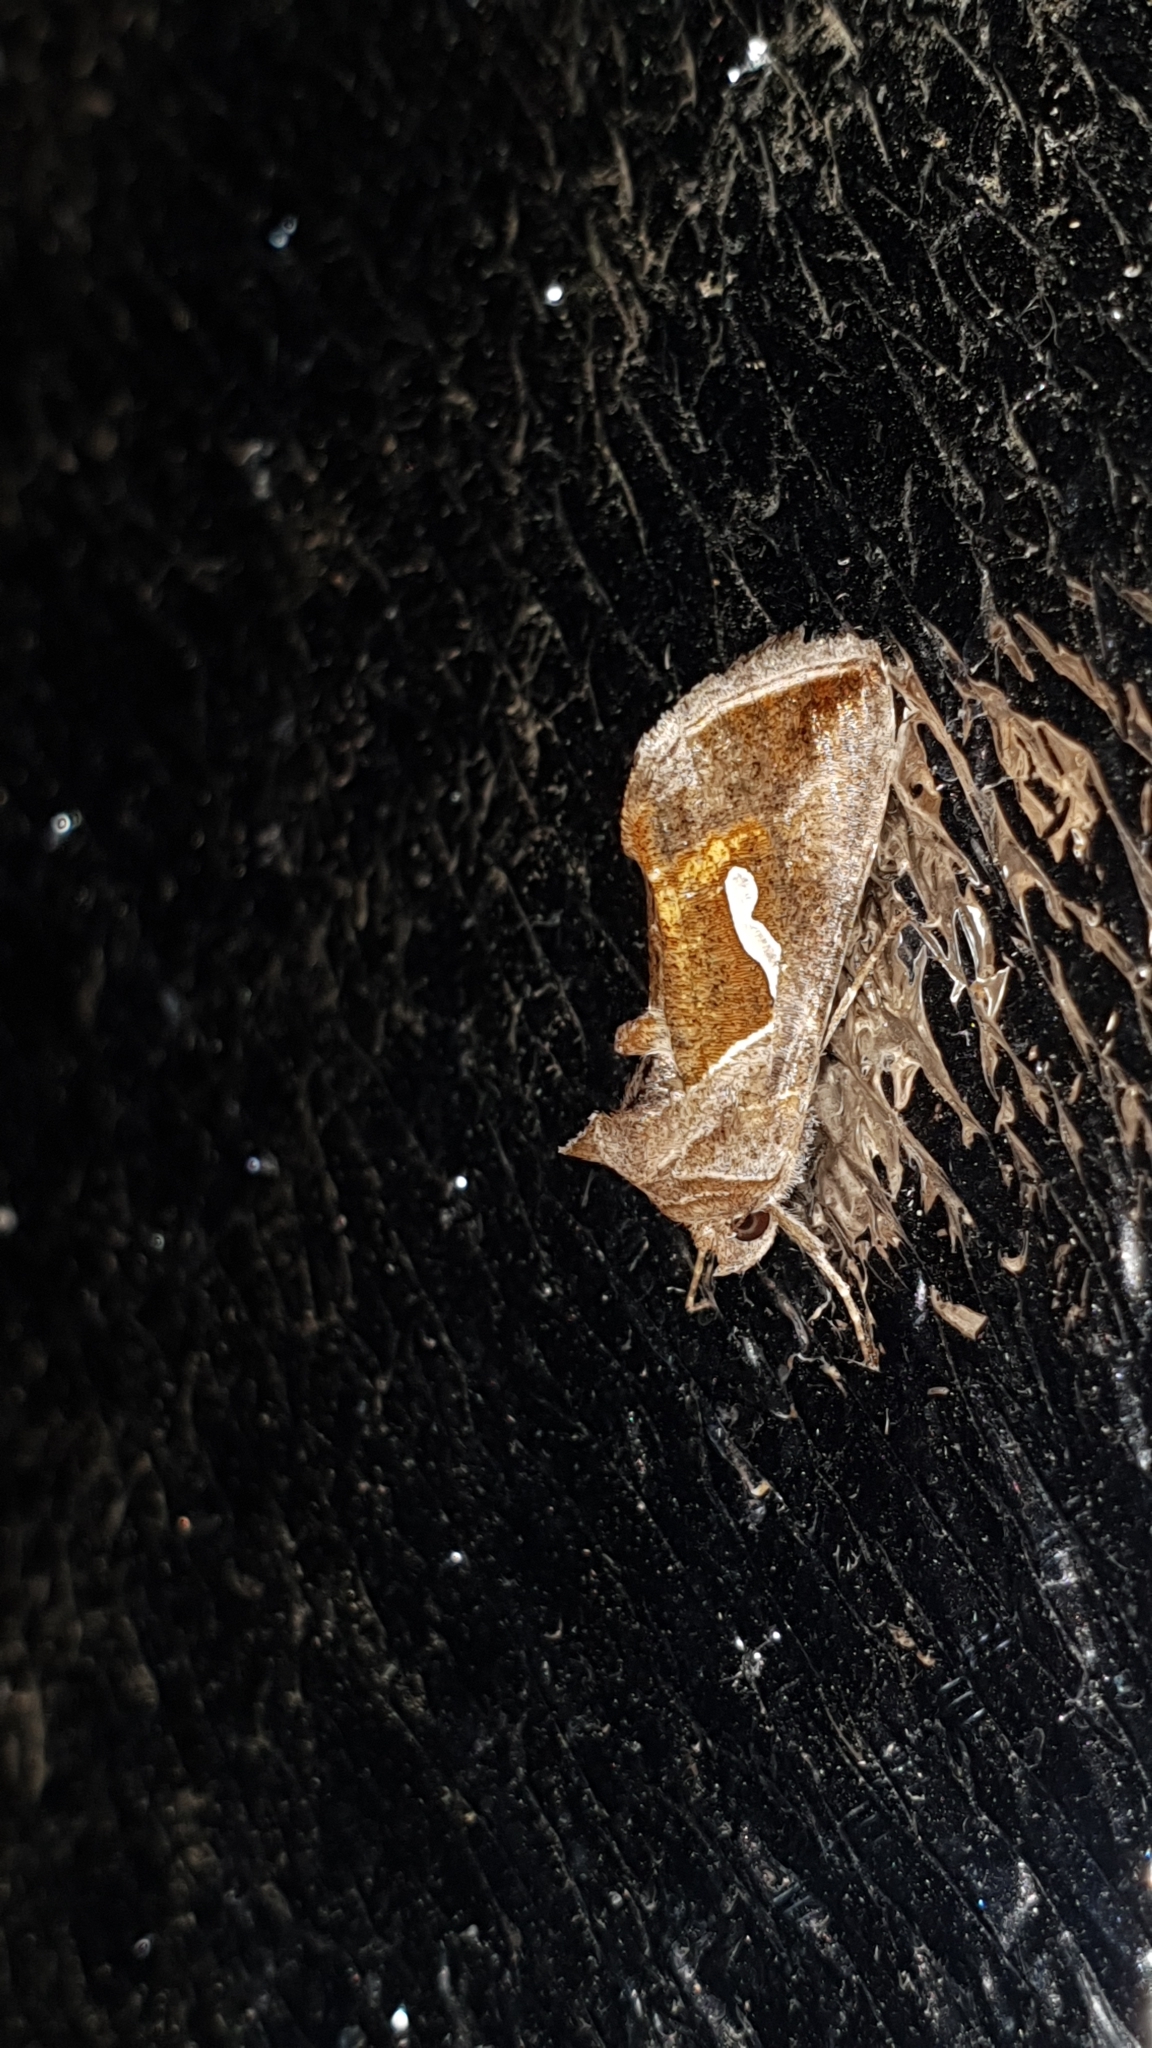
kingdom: Animalia
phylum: Arthropoda
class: Insecta
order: Lepidoptera
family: Noctuidae
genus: Macdunnoughia
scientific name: Macdunnoughia confusa
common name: Dewick's plusia
